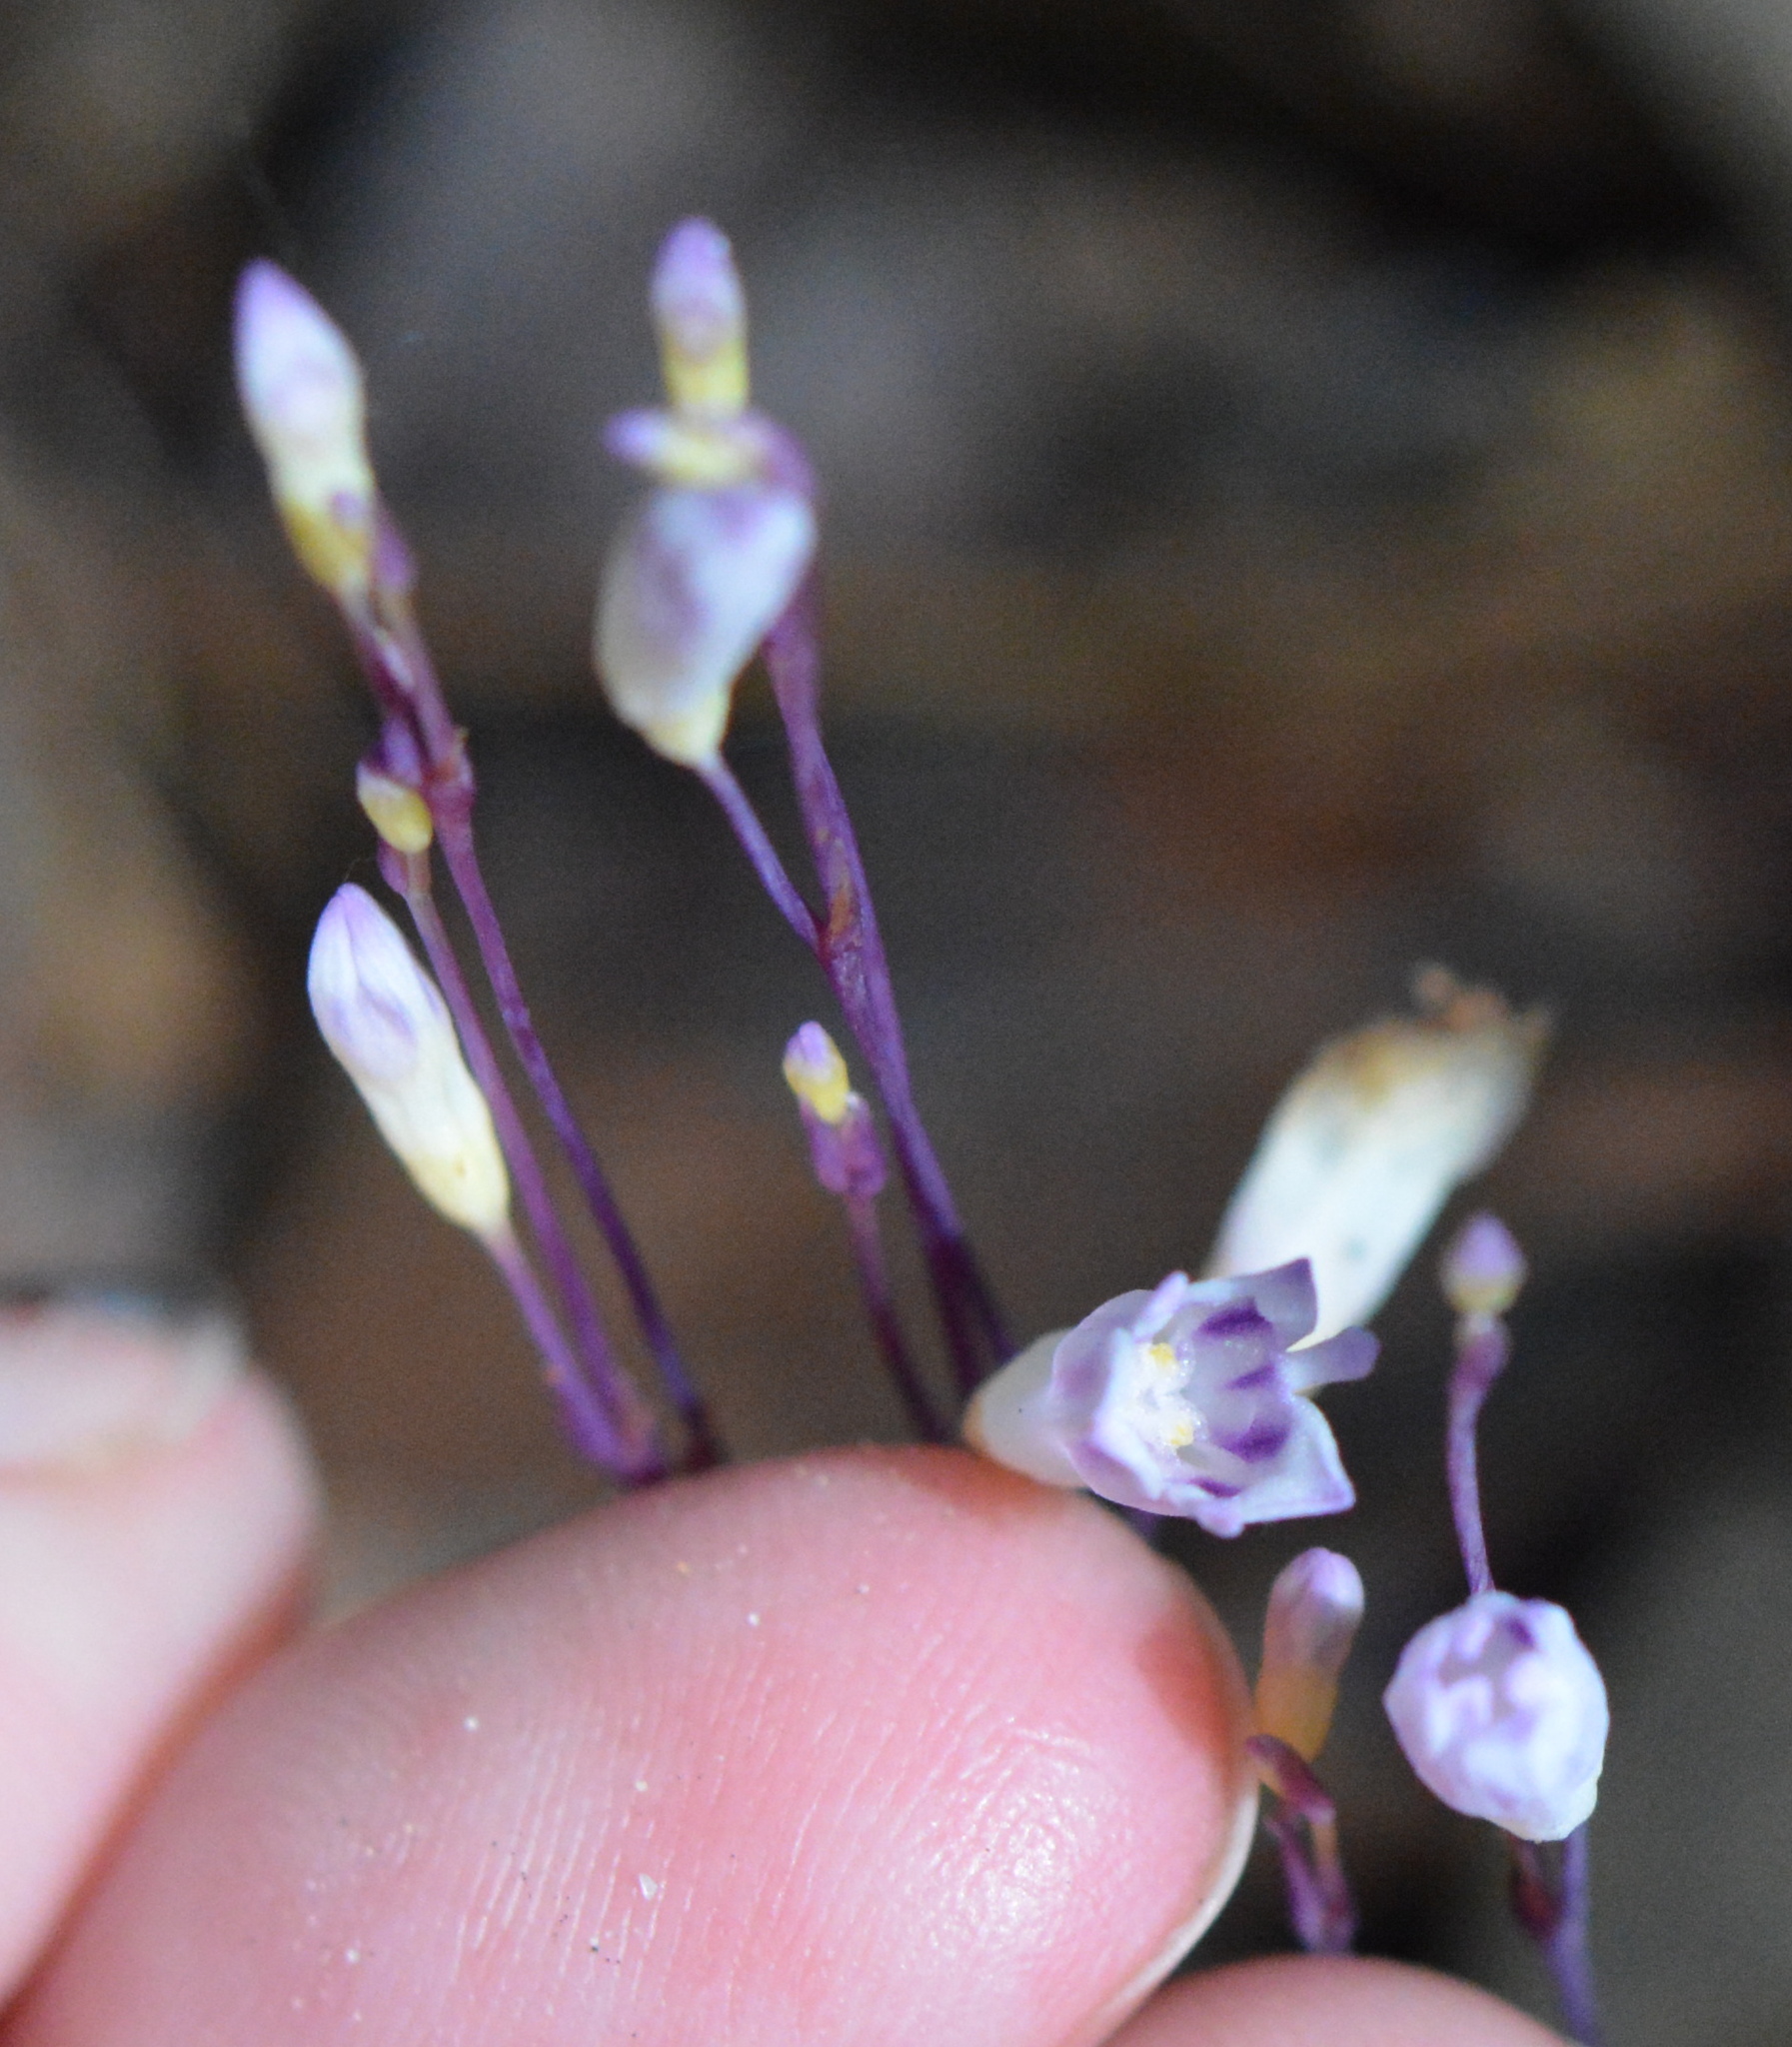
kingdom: Plantae
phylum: Tracheophyta
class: Liliopsida
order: Dioscoreales
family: Burmanniaceae
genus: Apteria
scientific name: Apteria aphylla
